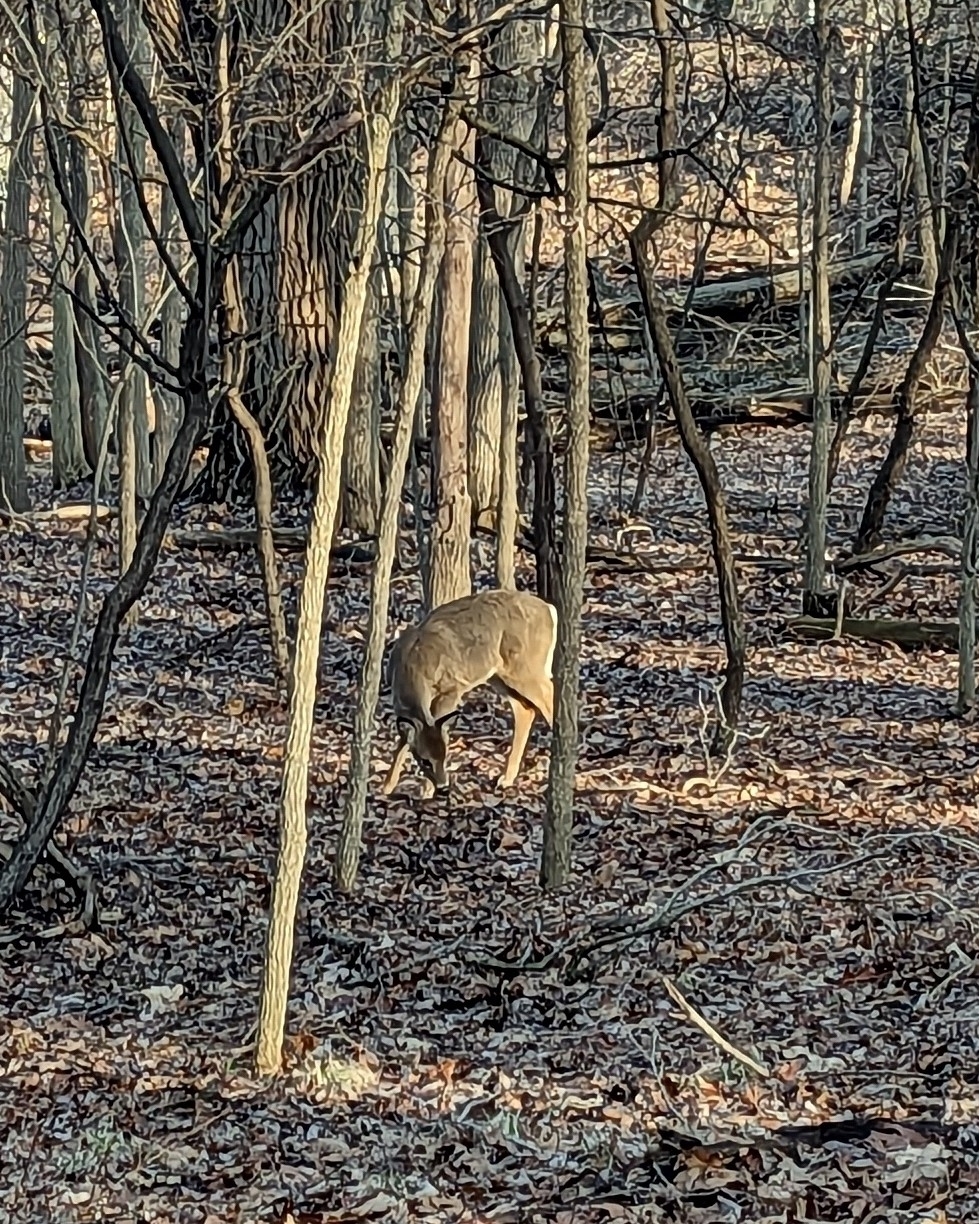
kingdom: Animalia
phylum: Chordata
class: Mammalia
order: Artiodactyla
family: Cervidae
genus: Odocoileus
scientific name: Odocoileus virginianus
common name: White-tailed deer
